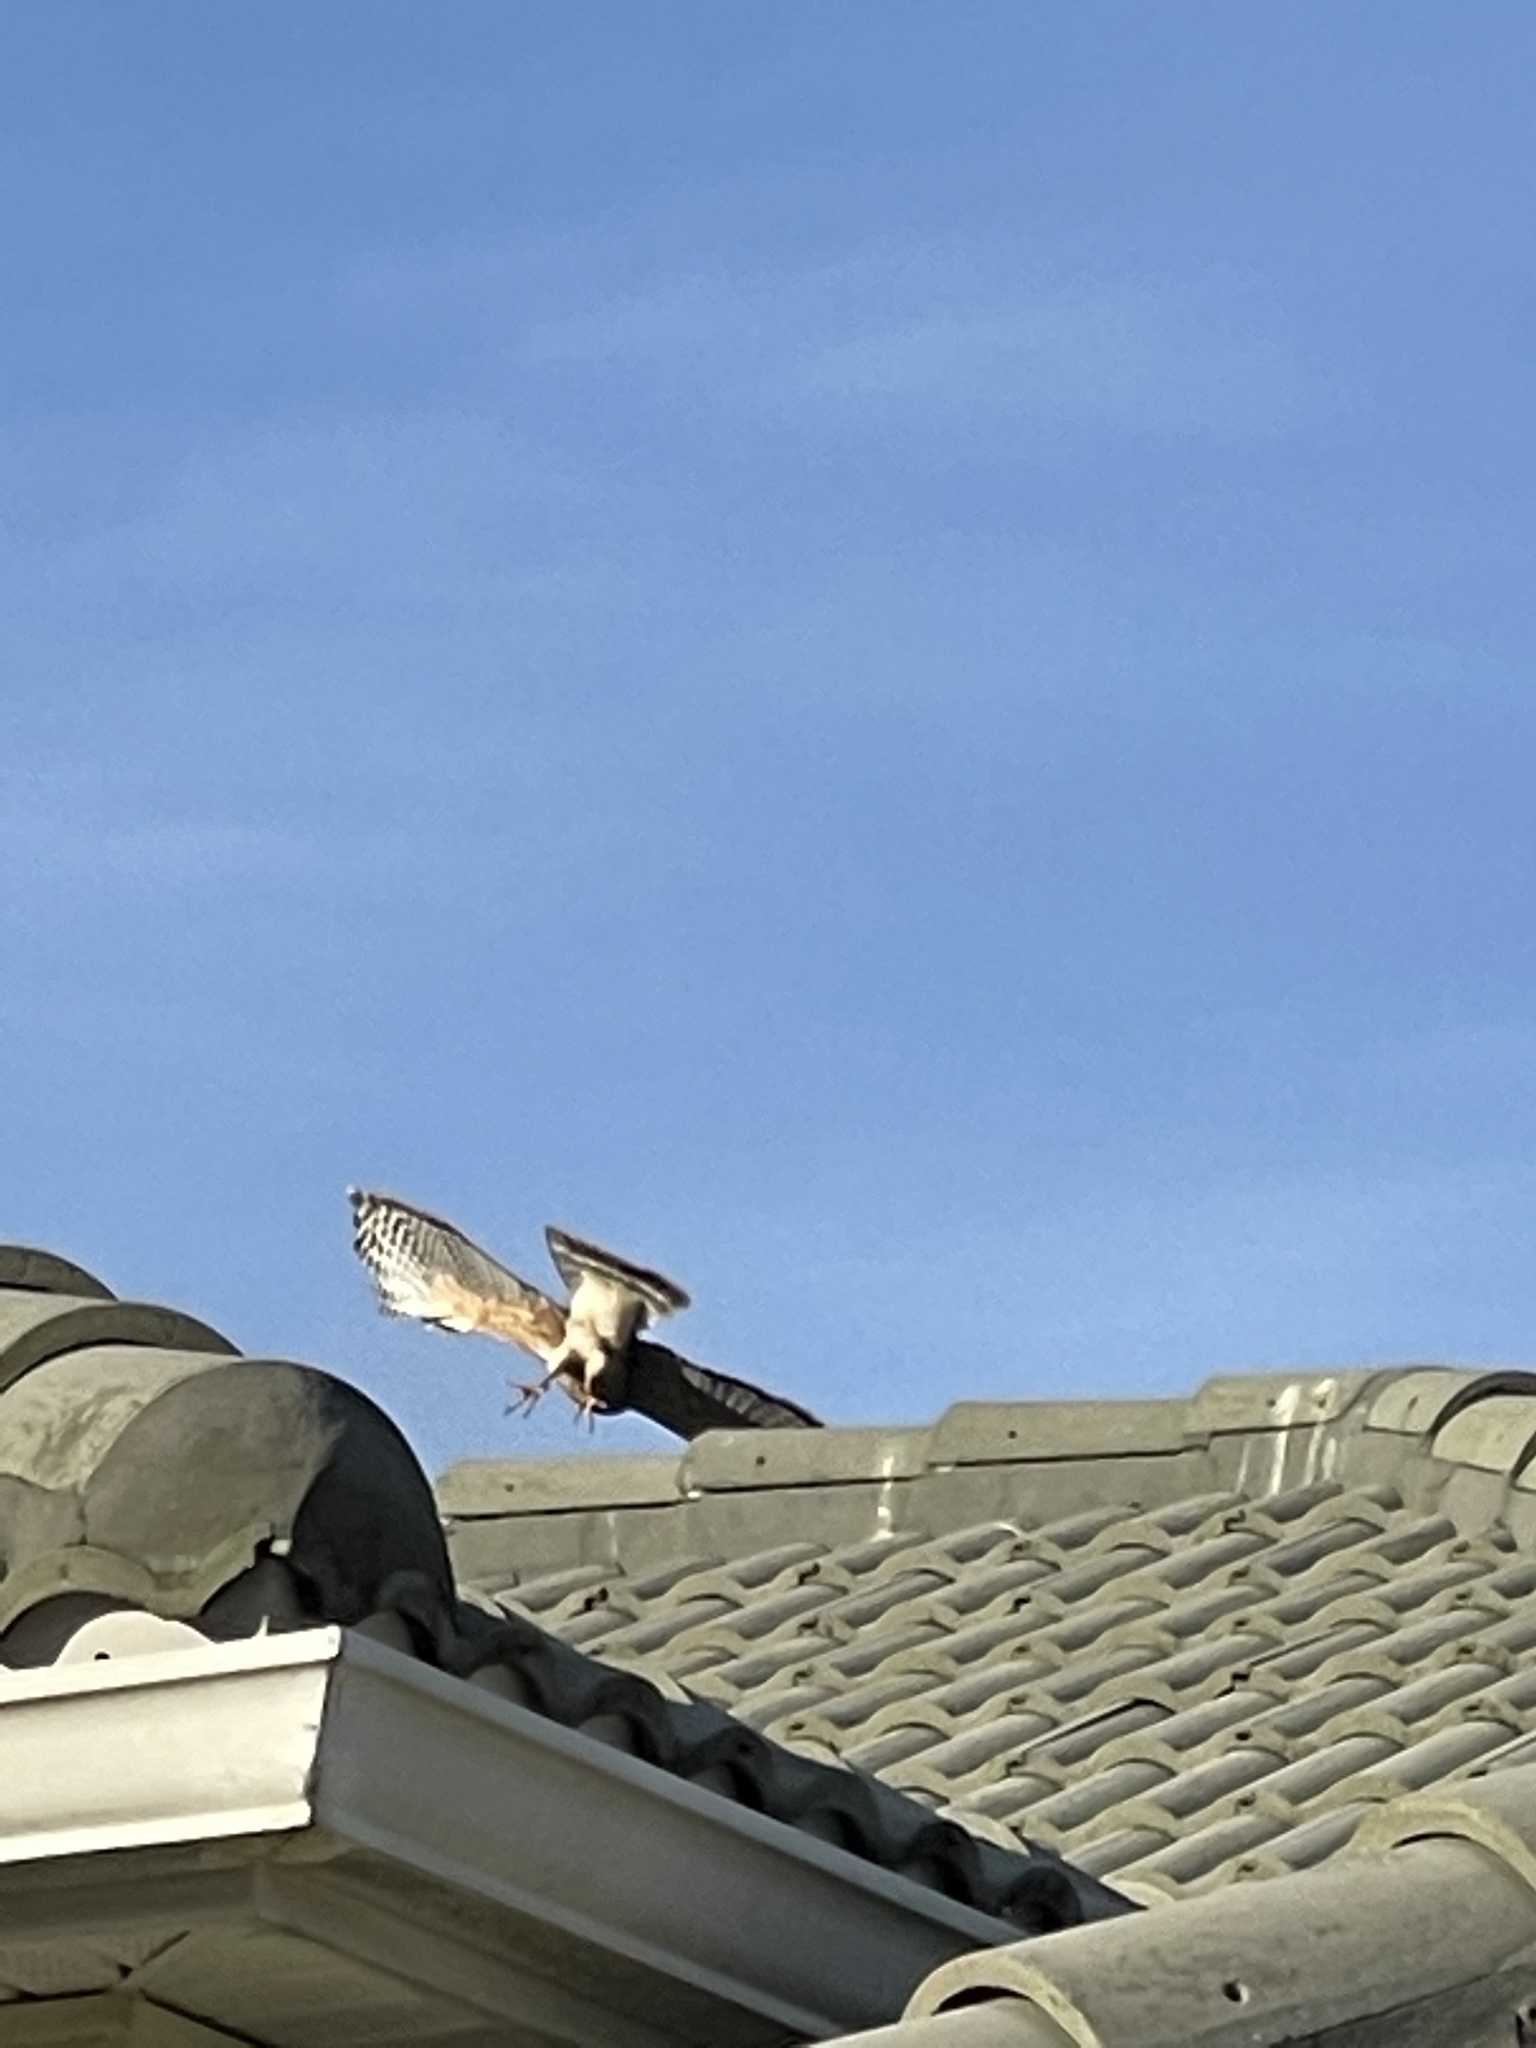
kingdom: Animalia
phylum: Chordata
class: Aves
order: Accipitriformes
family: Accipitridae
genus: Buteo
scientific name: Buteo lineatus
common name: Red-shouldered hawk
